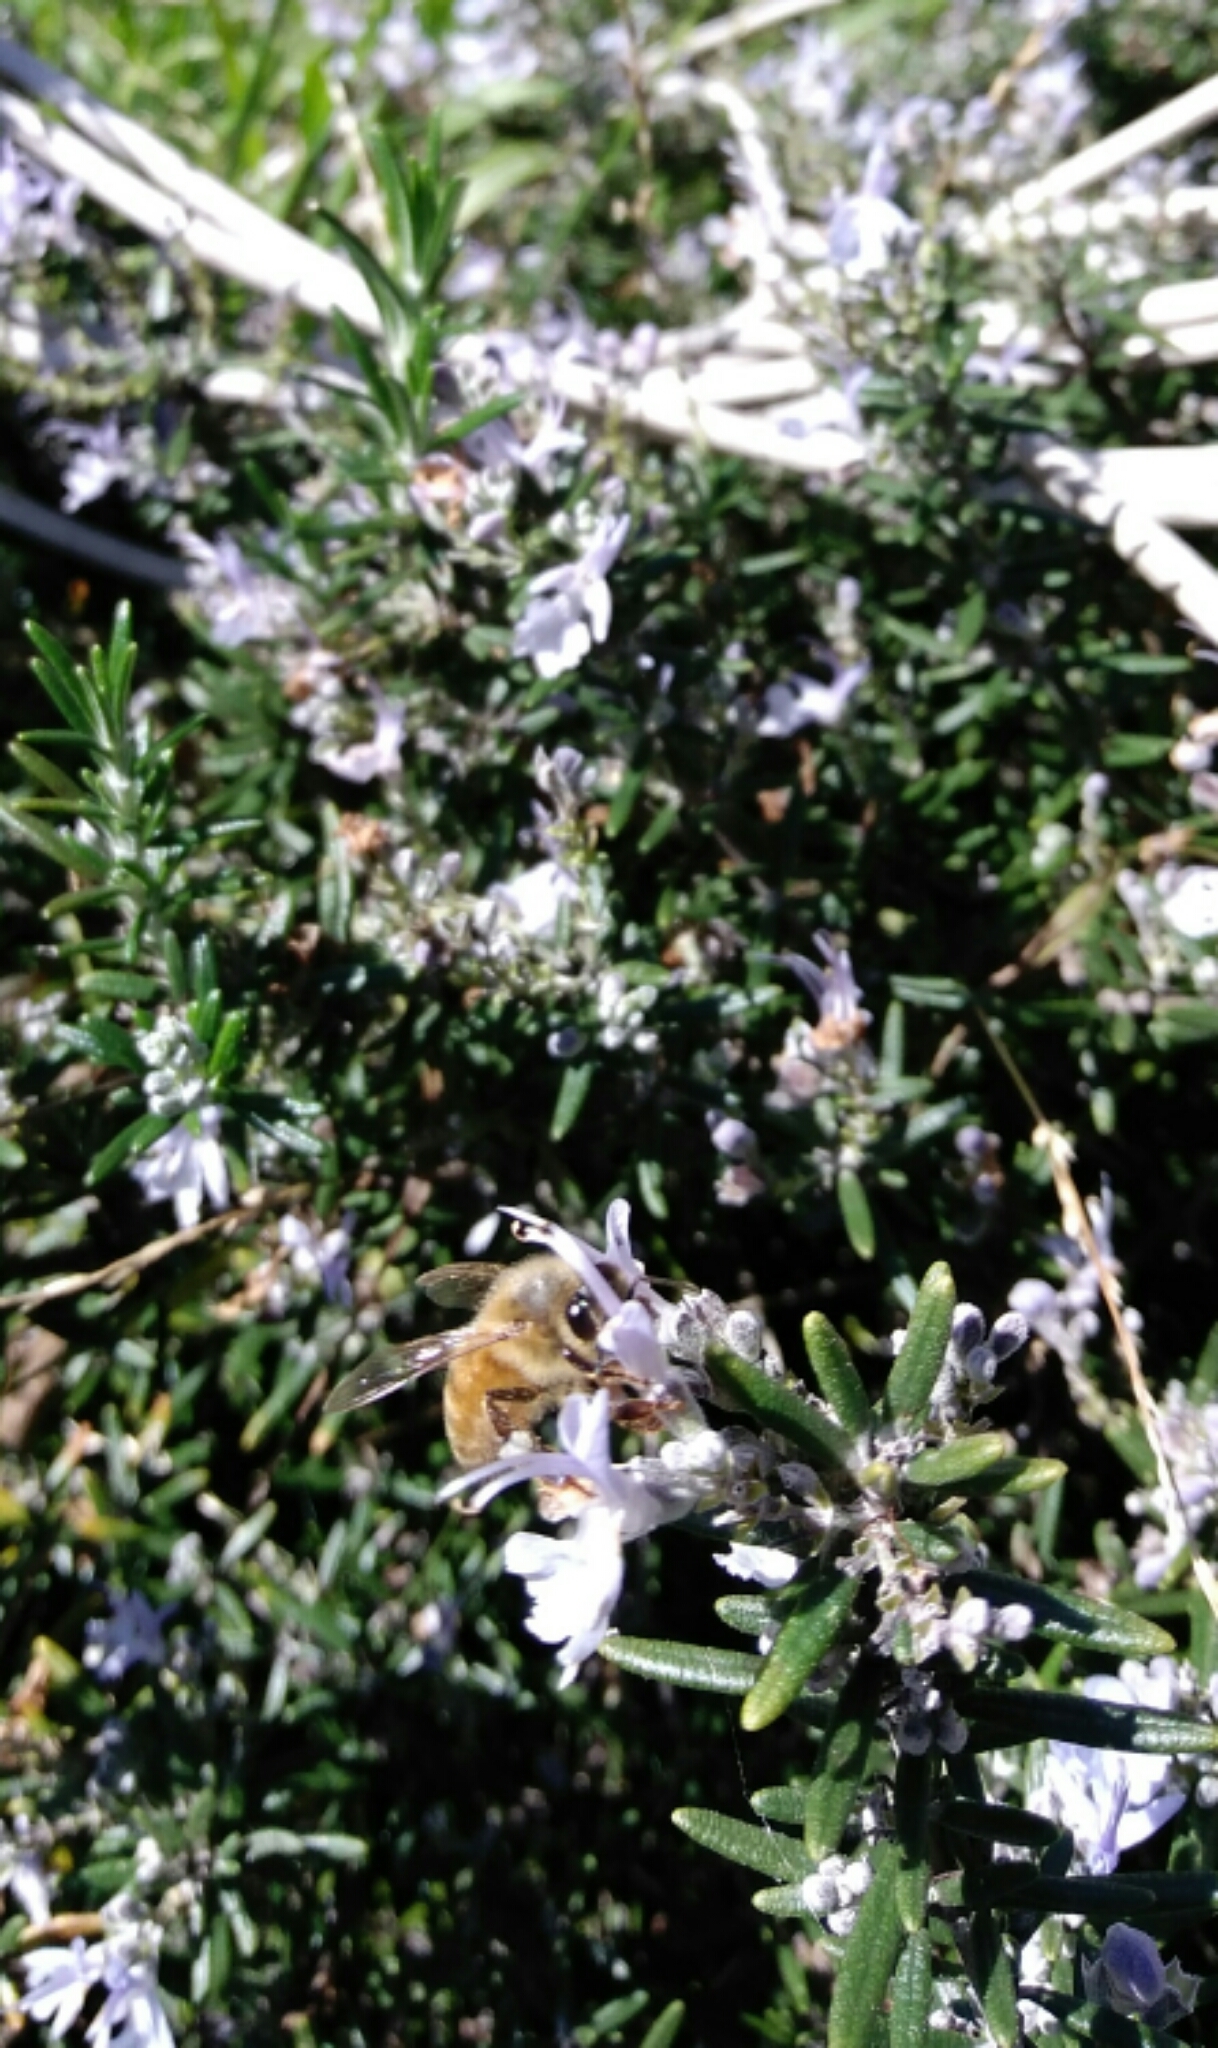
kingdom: Animalia
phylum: Arthropoda
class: Insecta
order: Hymenoptera
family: Apidae
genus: Apis
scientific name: Apis mellifera
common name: Honey bee
